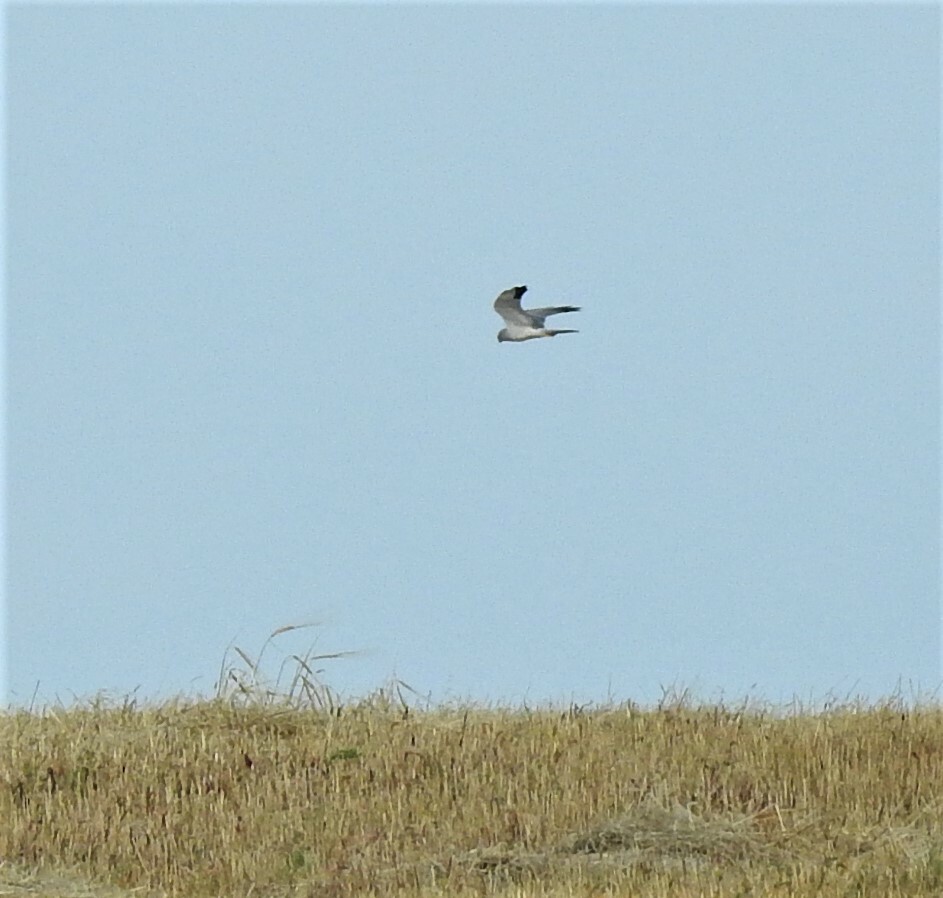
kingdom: Animalia
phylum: Chordata
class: Aves
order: Accipitriformes
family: Accipitridae
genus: Circus
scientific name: Circus macrourus
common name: Pallid harrier
